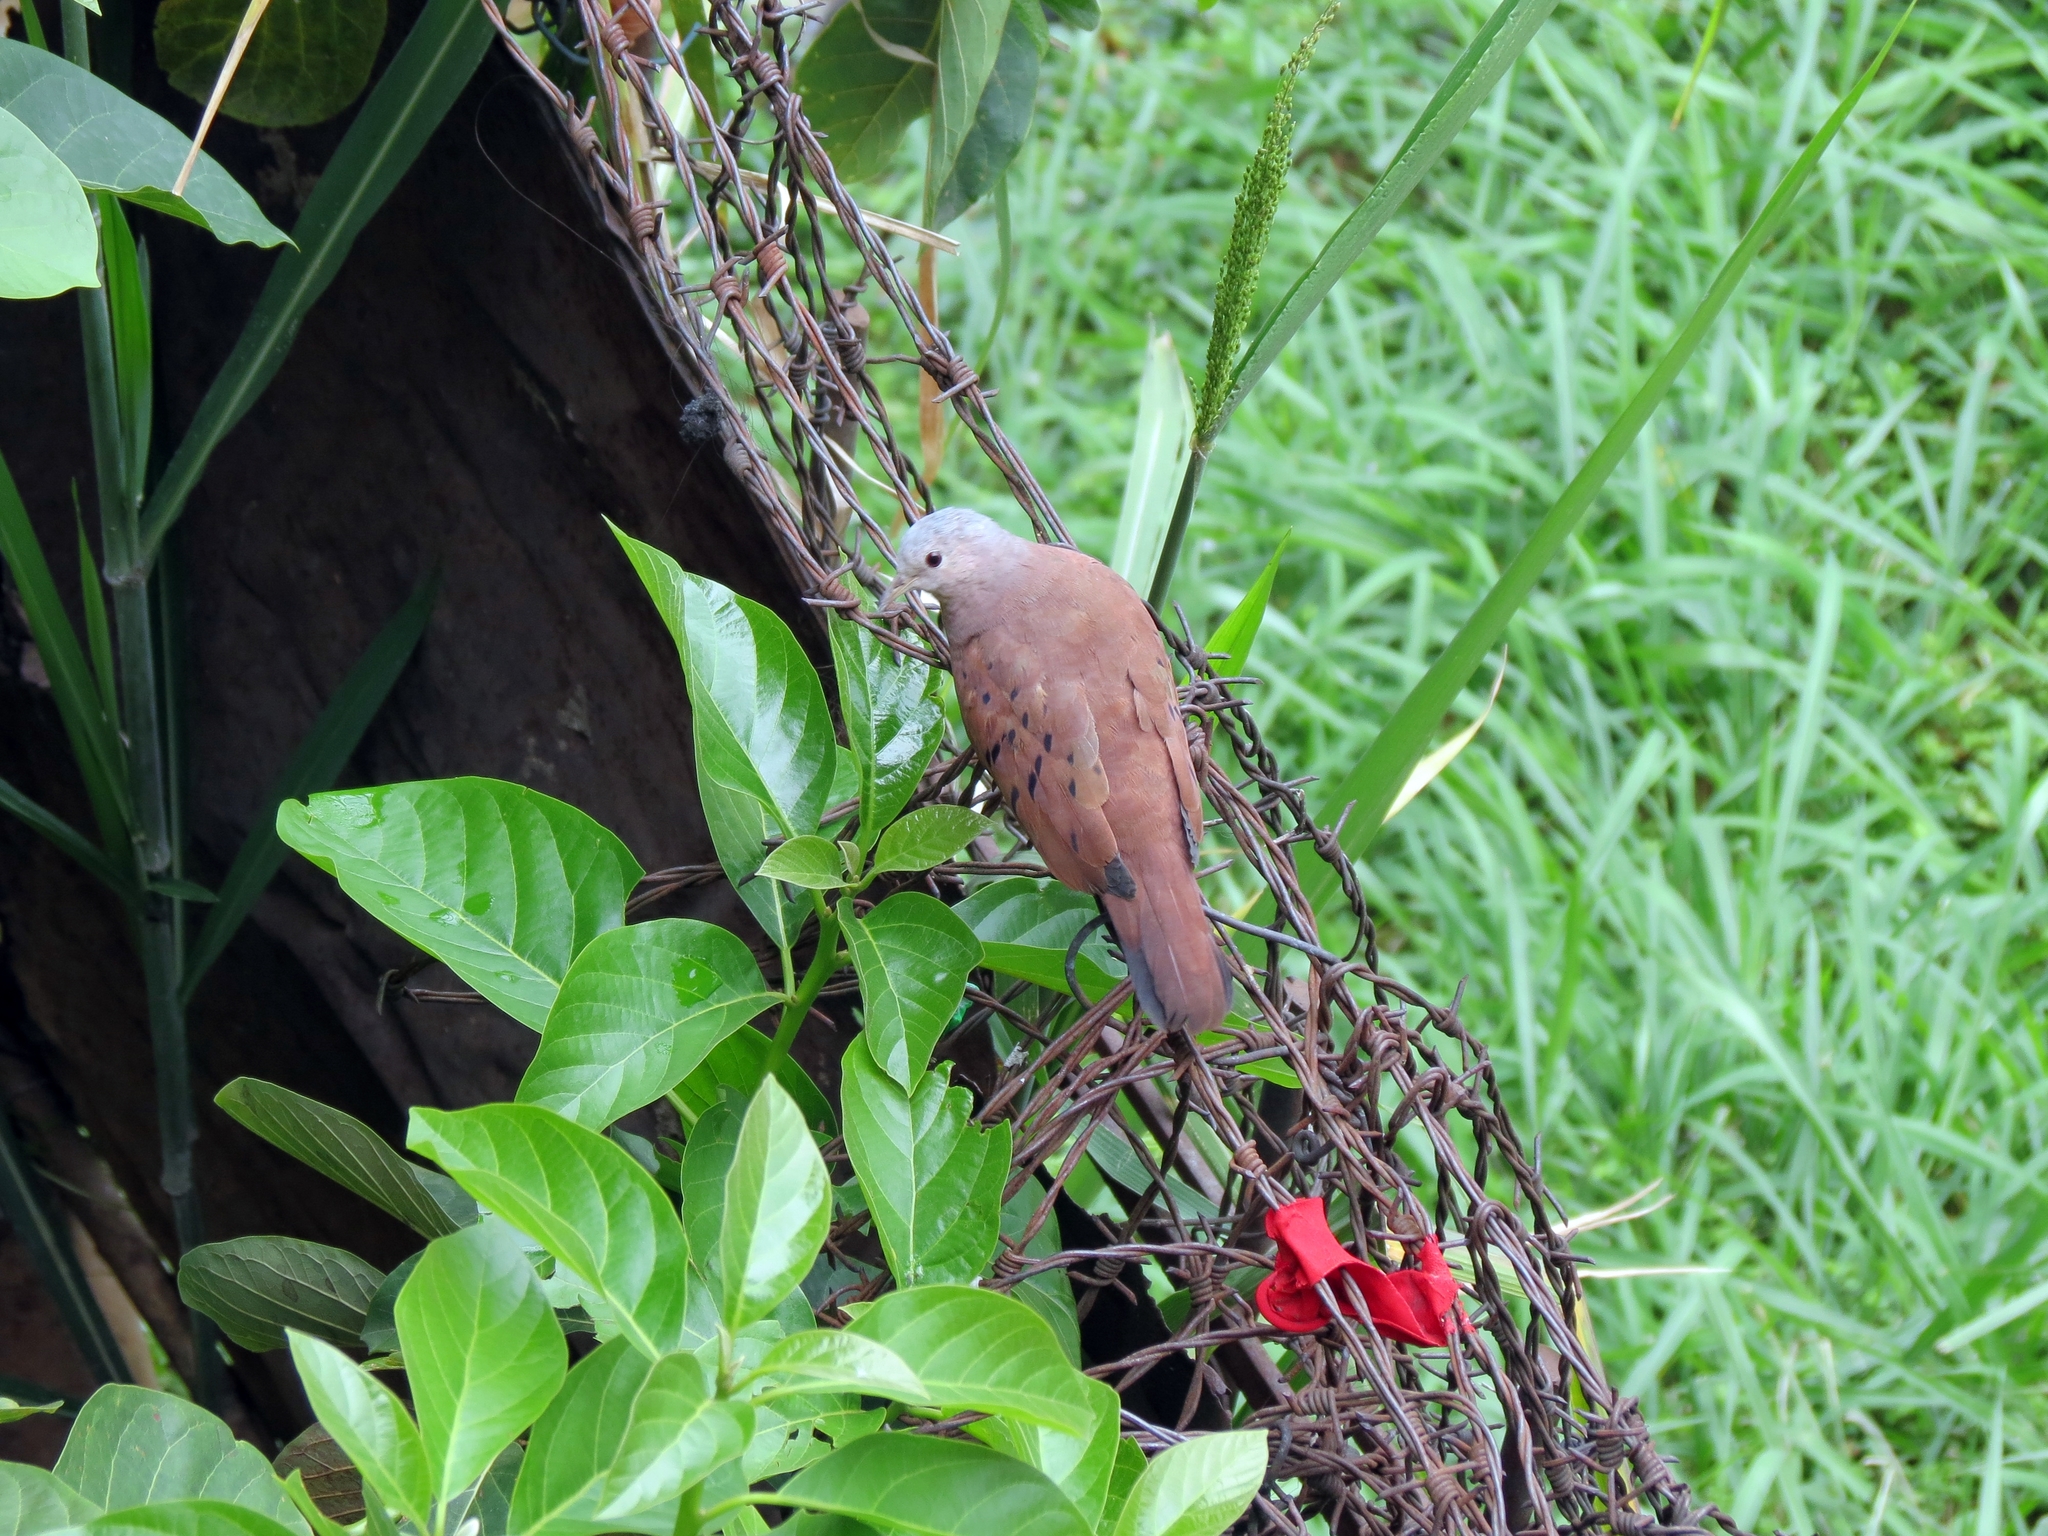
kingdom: Animalia
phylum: Chordata
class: Aves
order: Columbiformes
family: Columbidae
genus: Columbina
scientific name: Columbina talpacoti
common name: Ruddy ground dove
